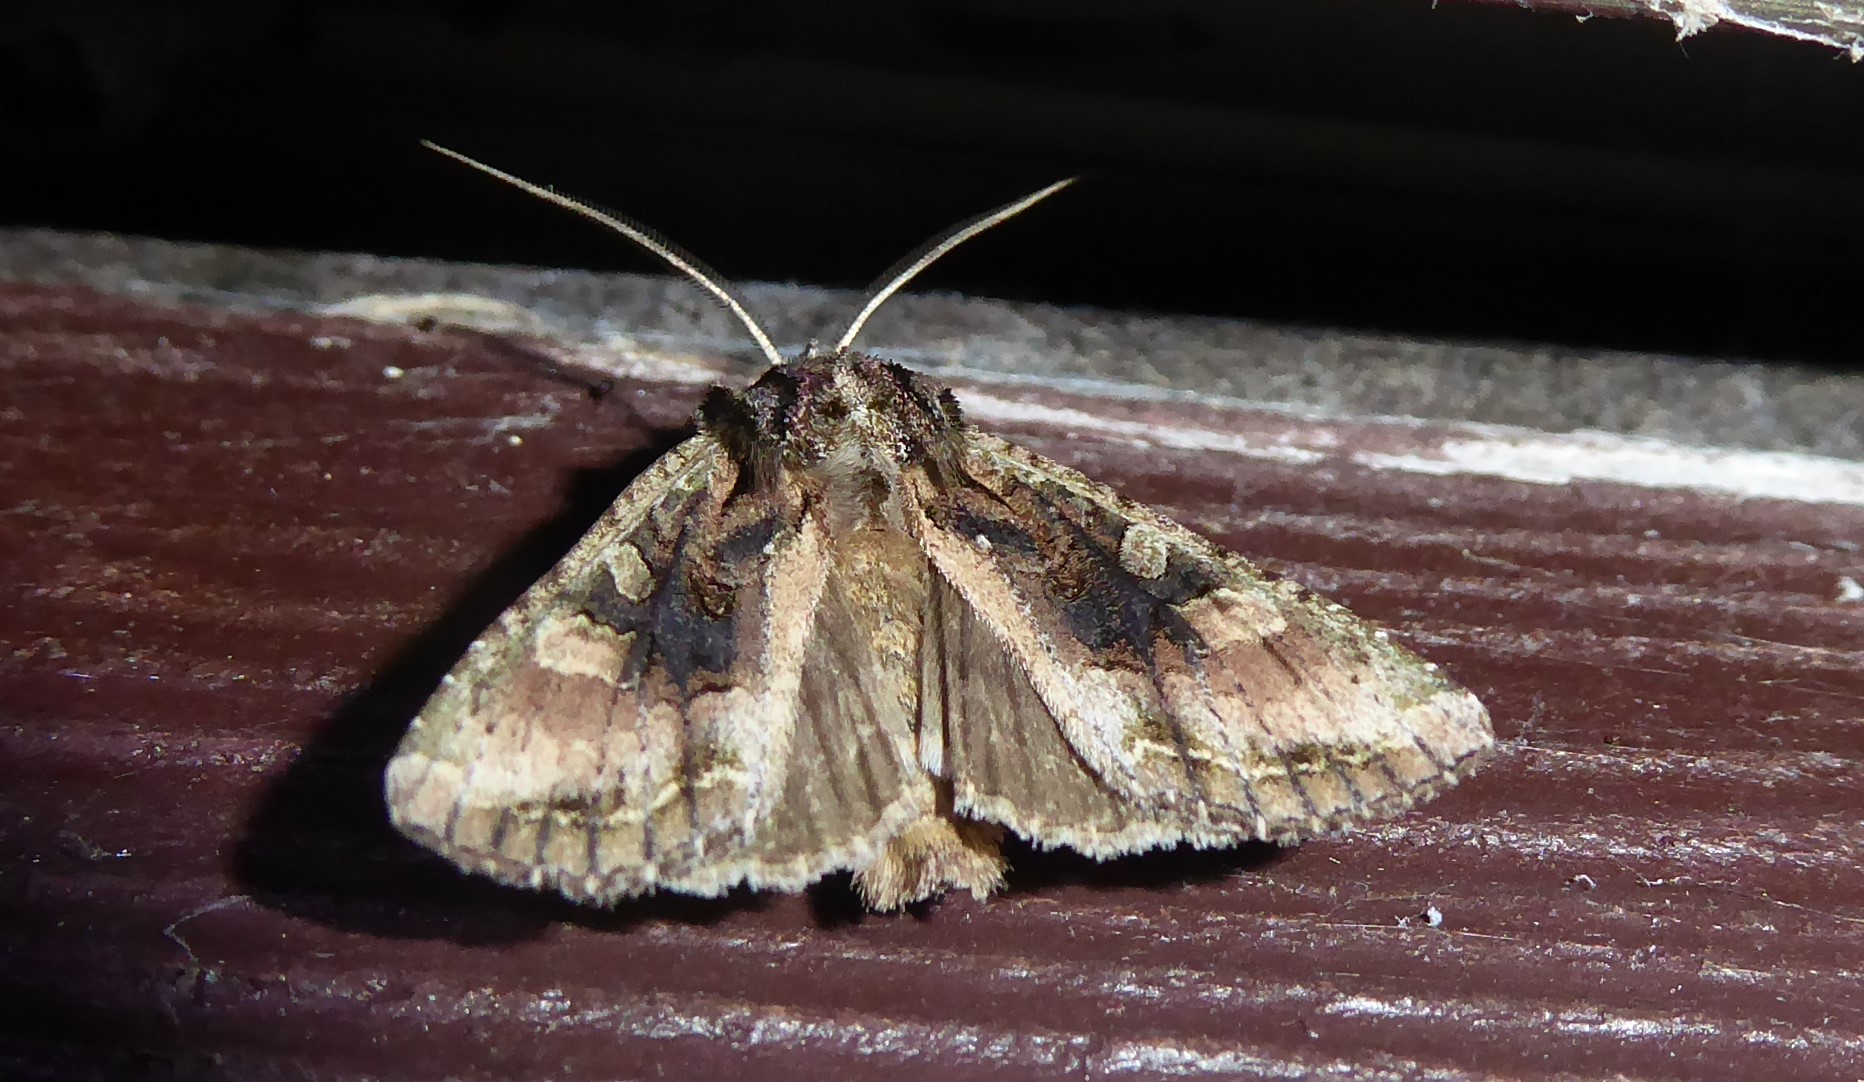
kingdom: Animalia
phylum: Arthropoda
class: Insecta
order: Lepidoptera
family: Noctuidae
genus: Ichneutica
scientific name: Ichneutica mutans
